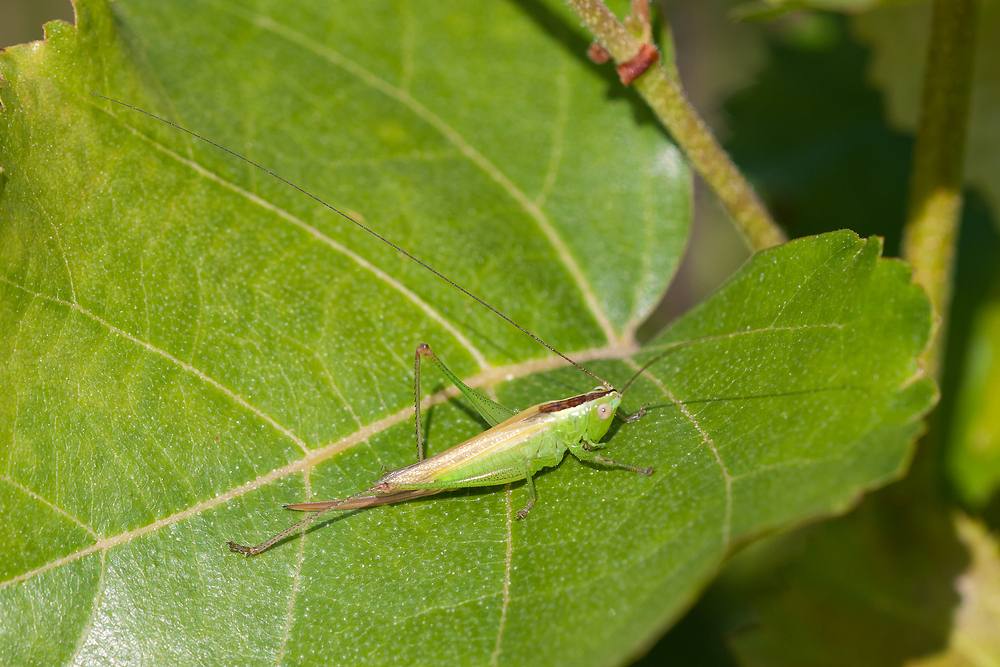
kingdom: Animalia
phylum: Arthropoda
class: Insecta
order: Orthoptera
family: Tettigoniidae
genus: Conocephalus
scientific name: Conocephalus fuscus
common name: Long-winged conehead
